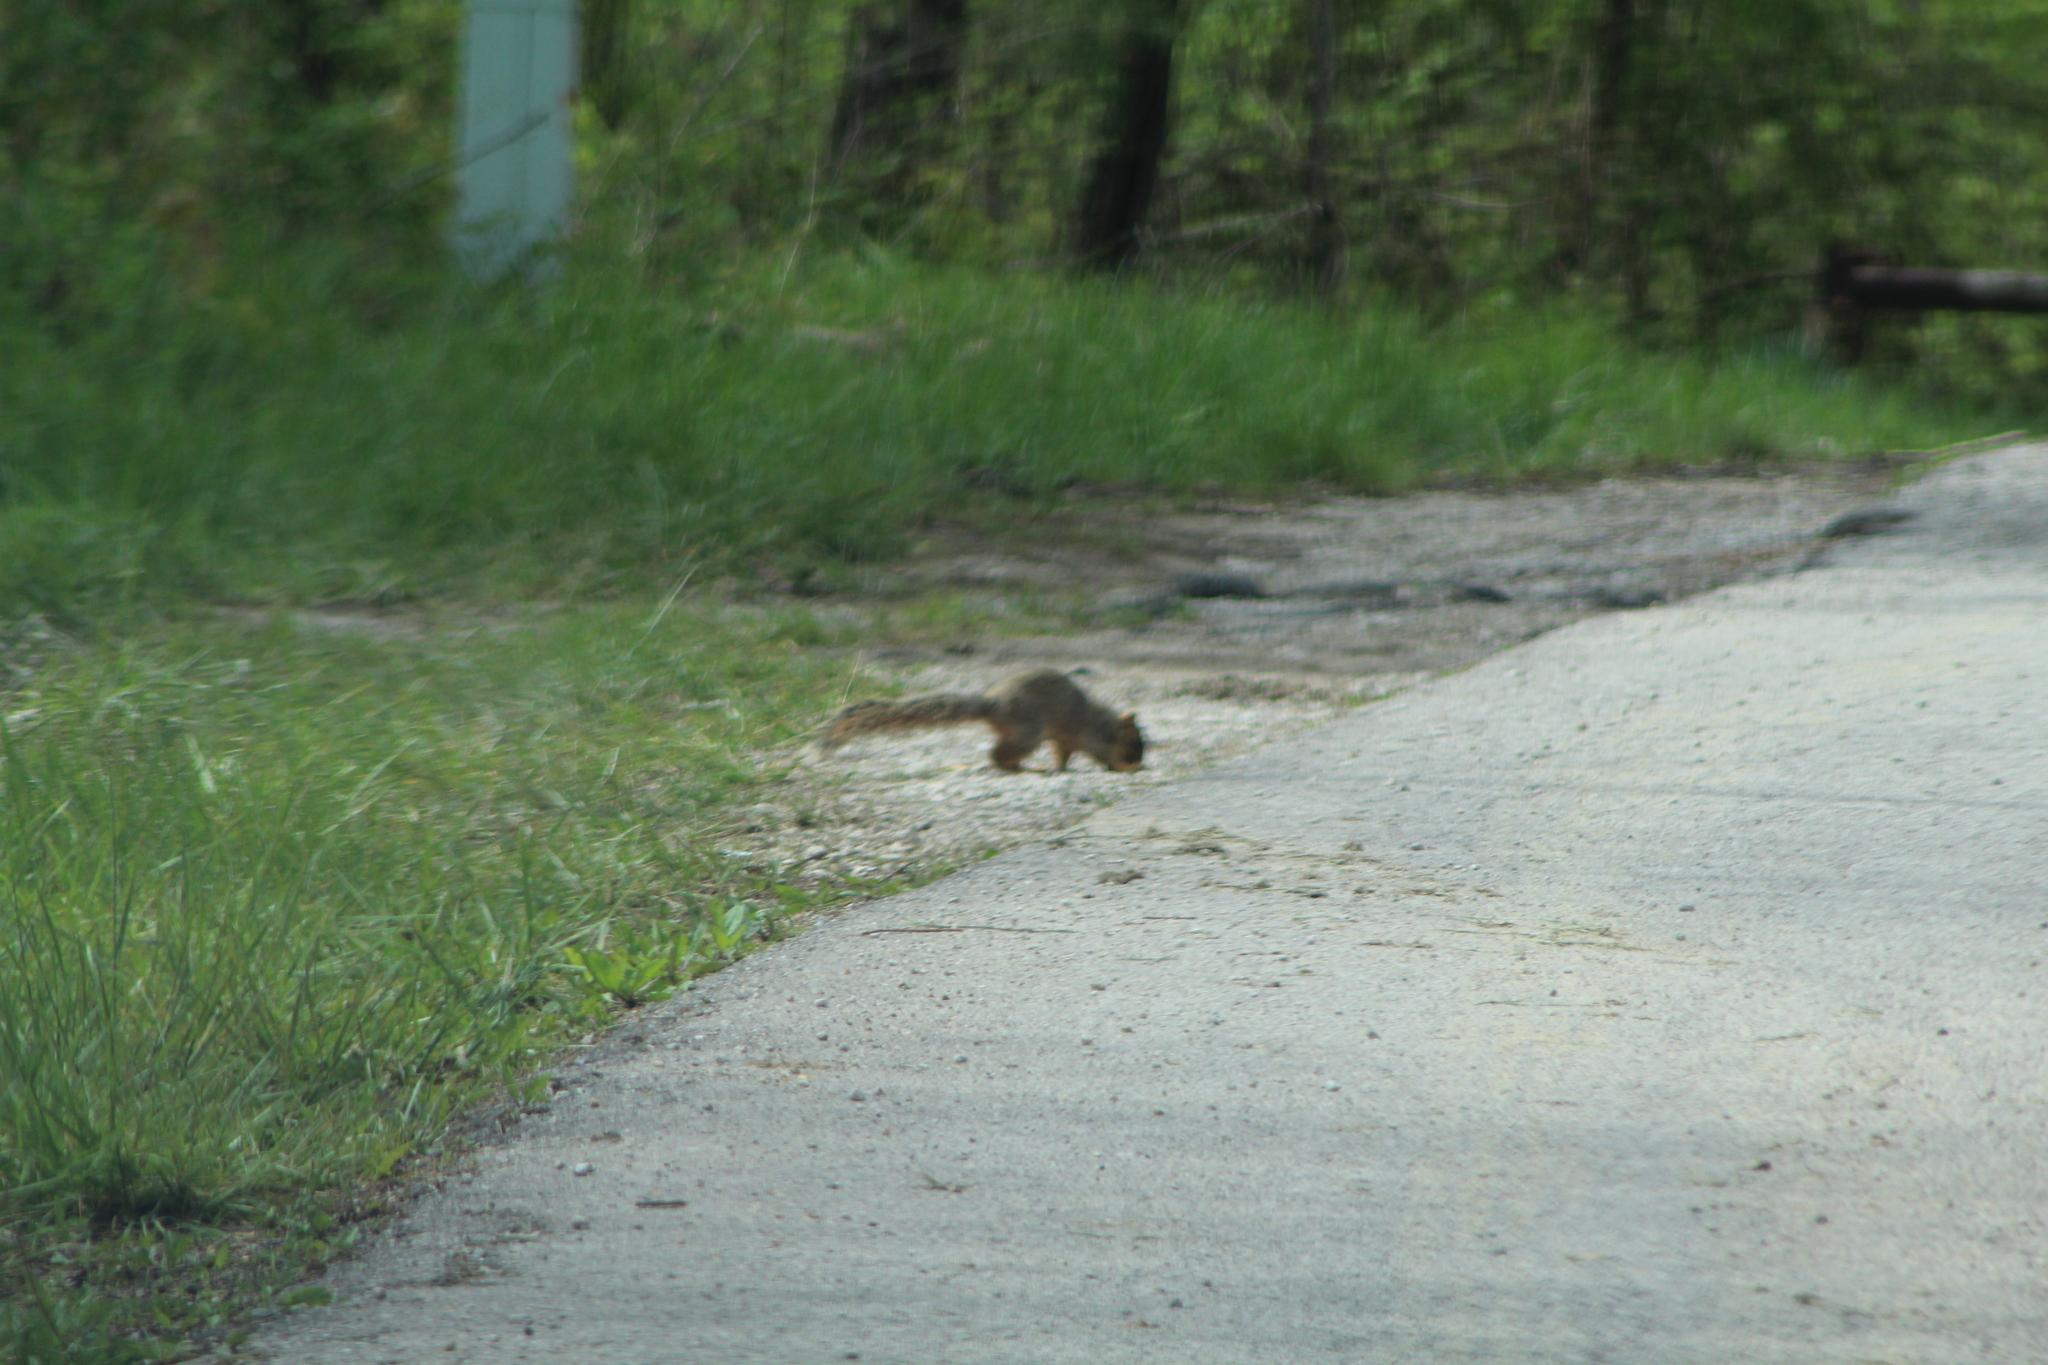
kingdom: Animalia
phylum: Chordata
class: Mammalia
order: Rodentia
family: Sciuridae
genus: Sciurus
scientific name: Sciurus niger
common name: Fox squirrel
